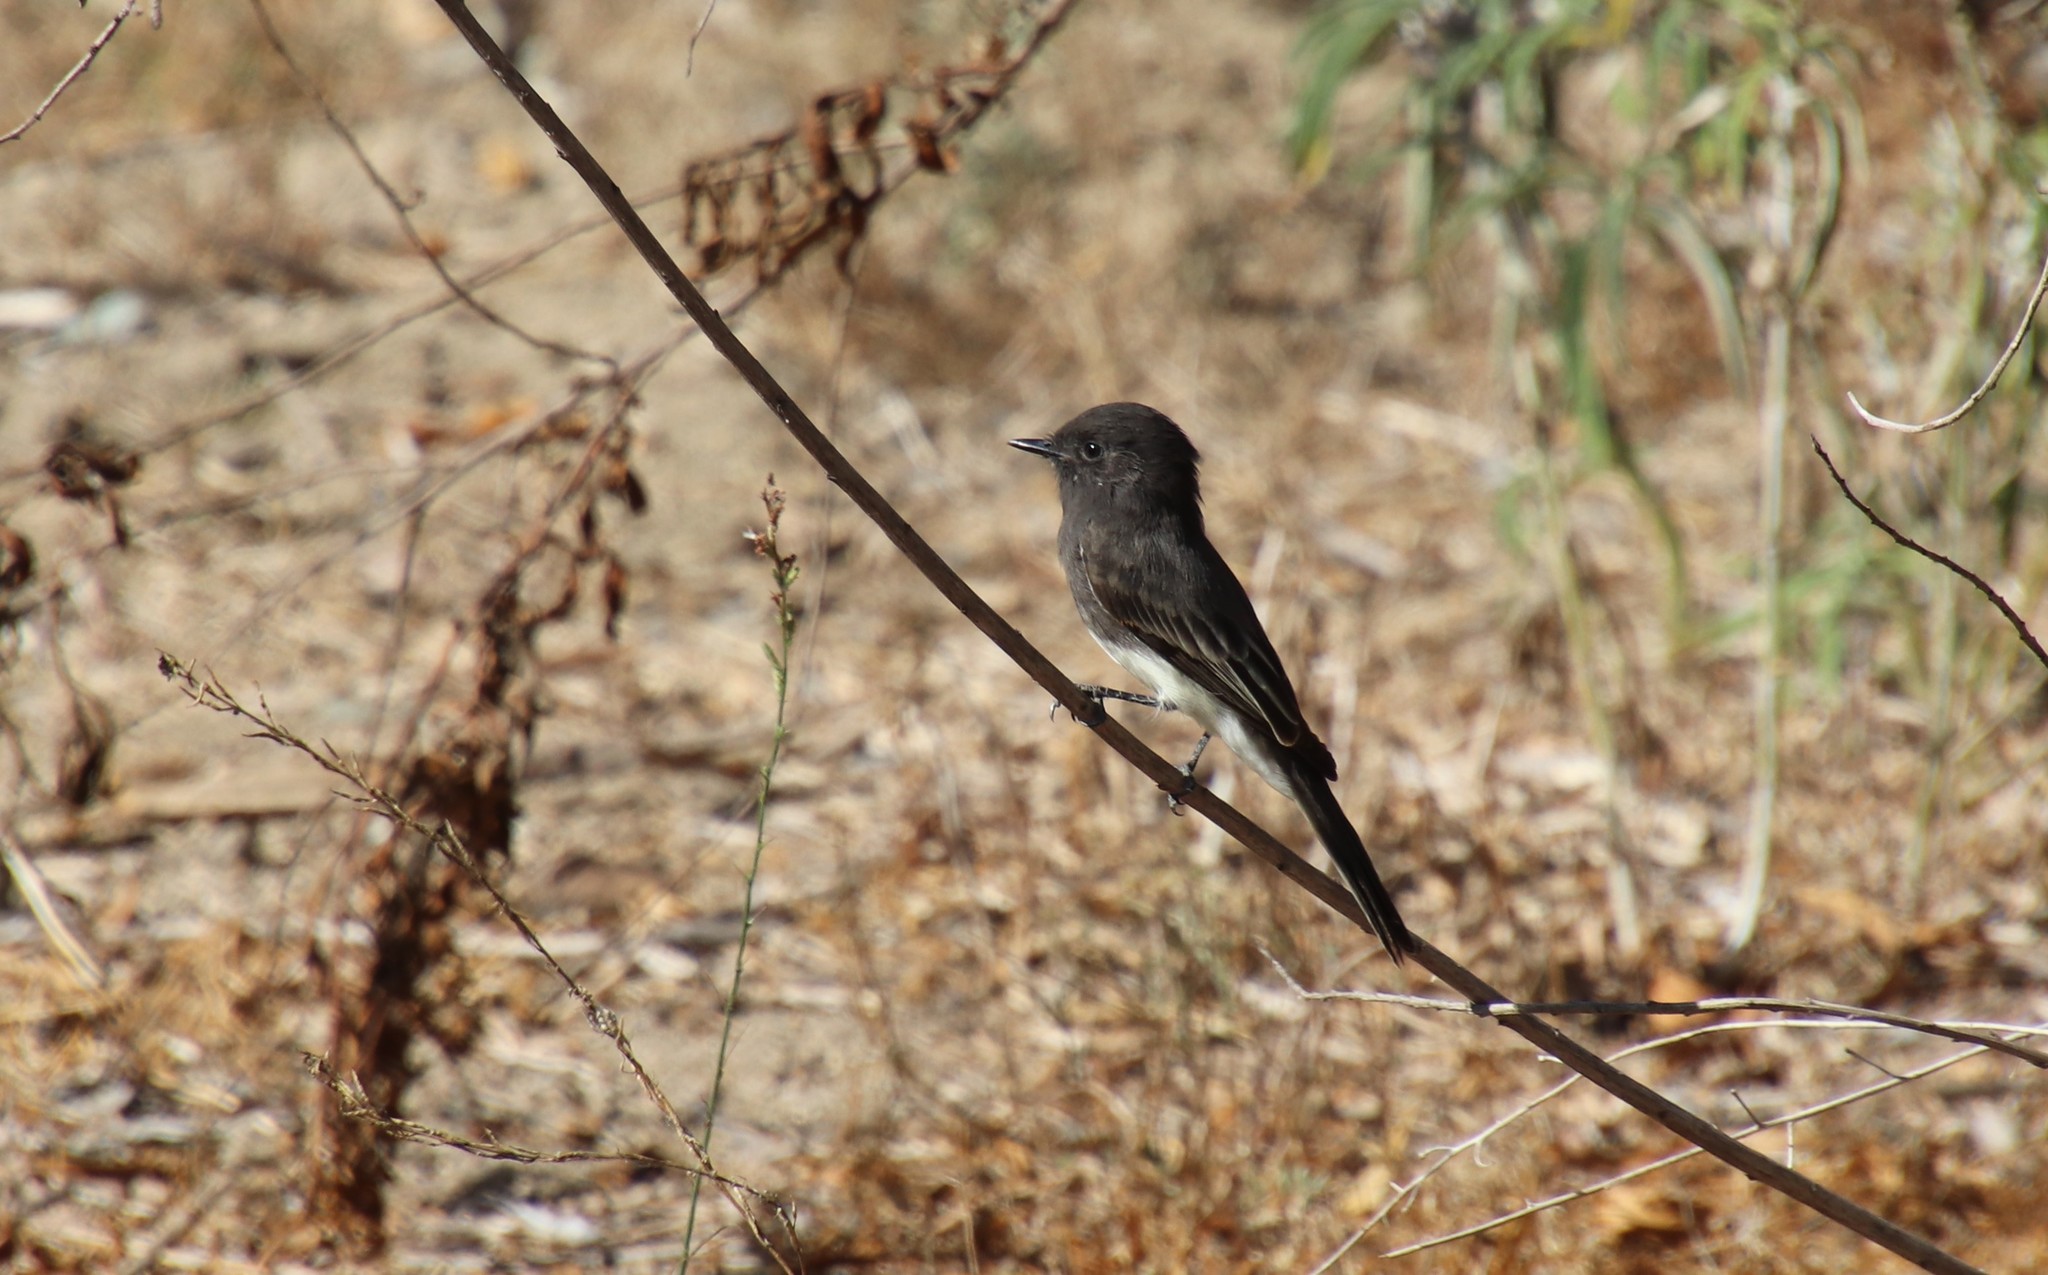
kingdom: Animalia
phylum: Chordata
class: Aves
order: Passeriformes
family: Tyrannidae
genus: Sayornis
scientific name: Sayornis nigricans
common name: Black phoebe
